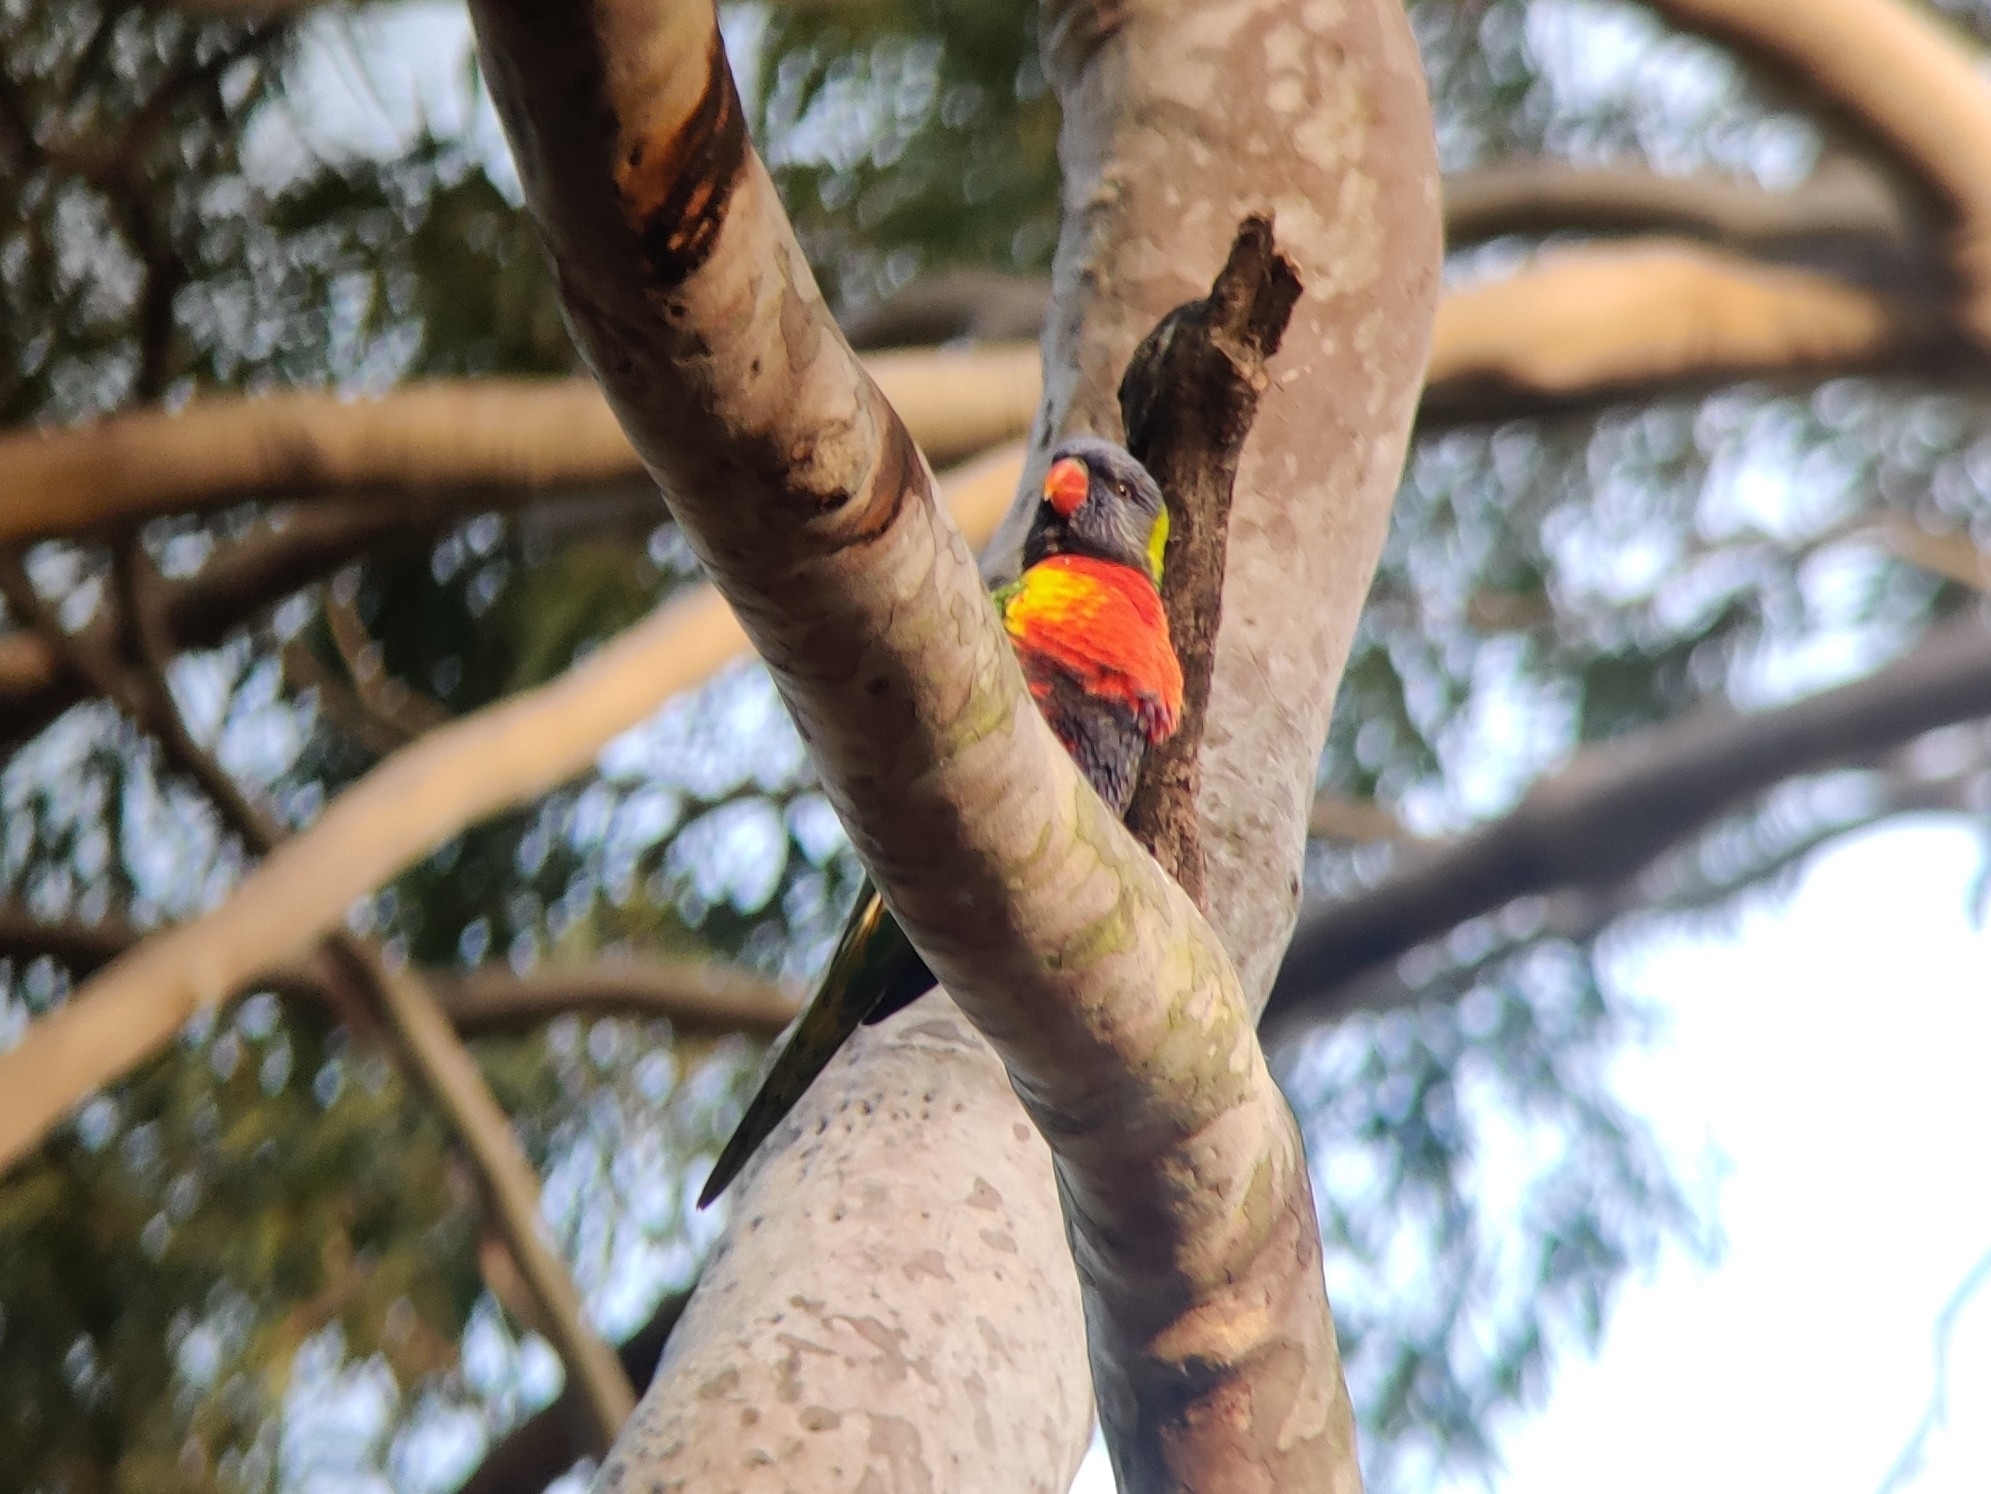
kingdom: Animalia
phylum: Chordata
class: Aves
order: Psittaciformes
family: Psittacidae
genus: Trichoglossus
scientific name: Trichoglossus haematodus
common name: Coconut lorikeet
